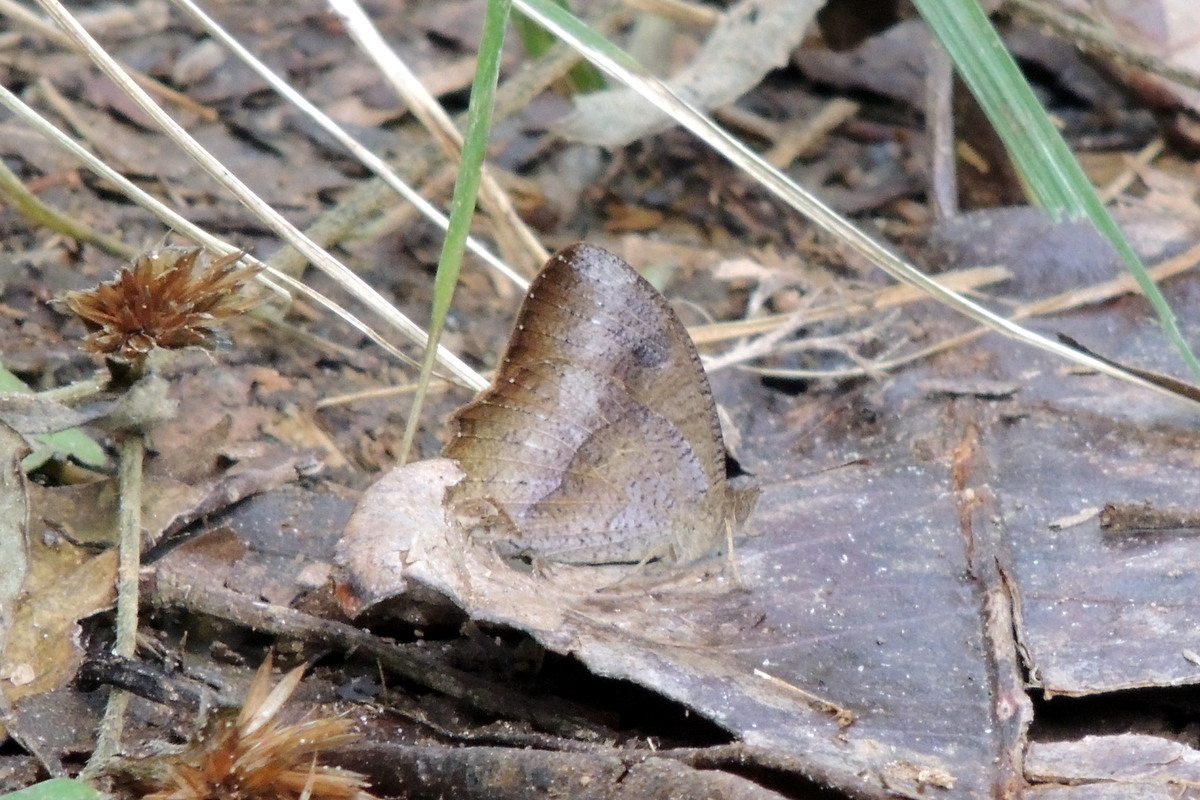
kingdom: Animalia
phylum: Arthropoda
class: Insecta
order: Lepidoptera
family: Nymphalidae
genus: Heteropsis
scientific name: Heteropsis iboina
